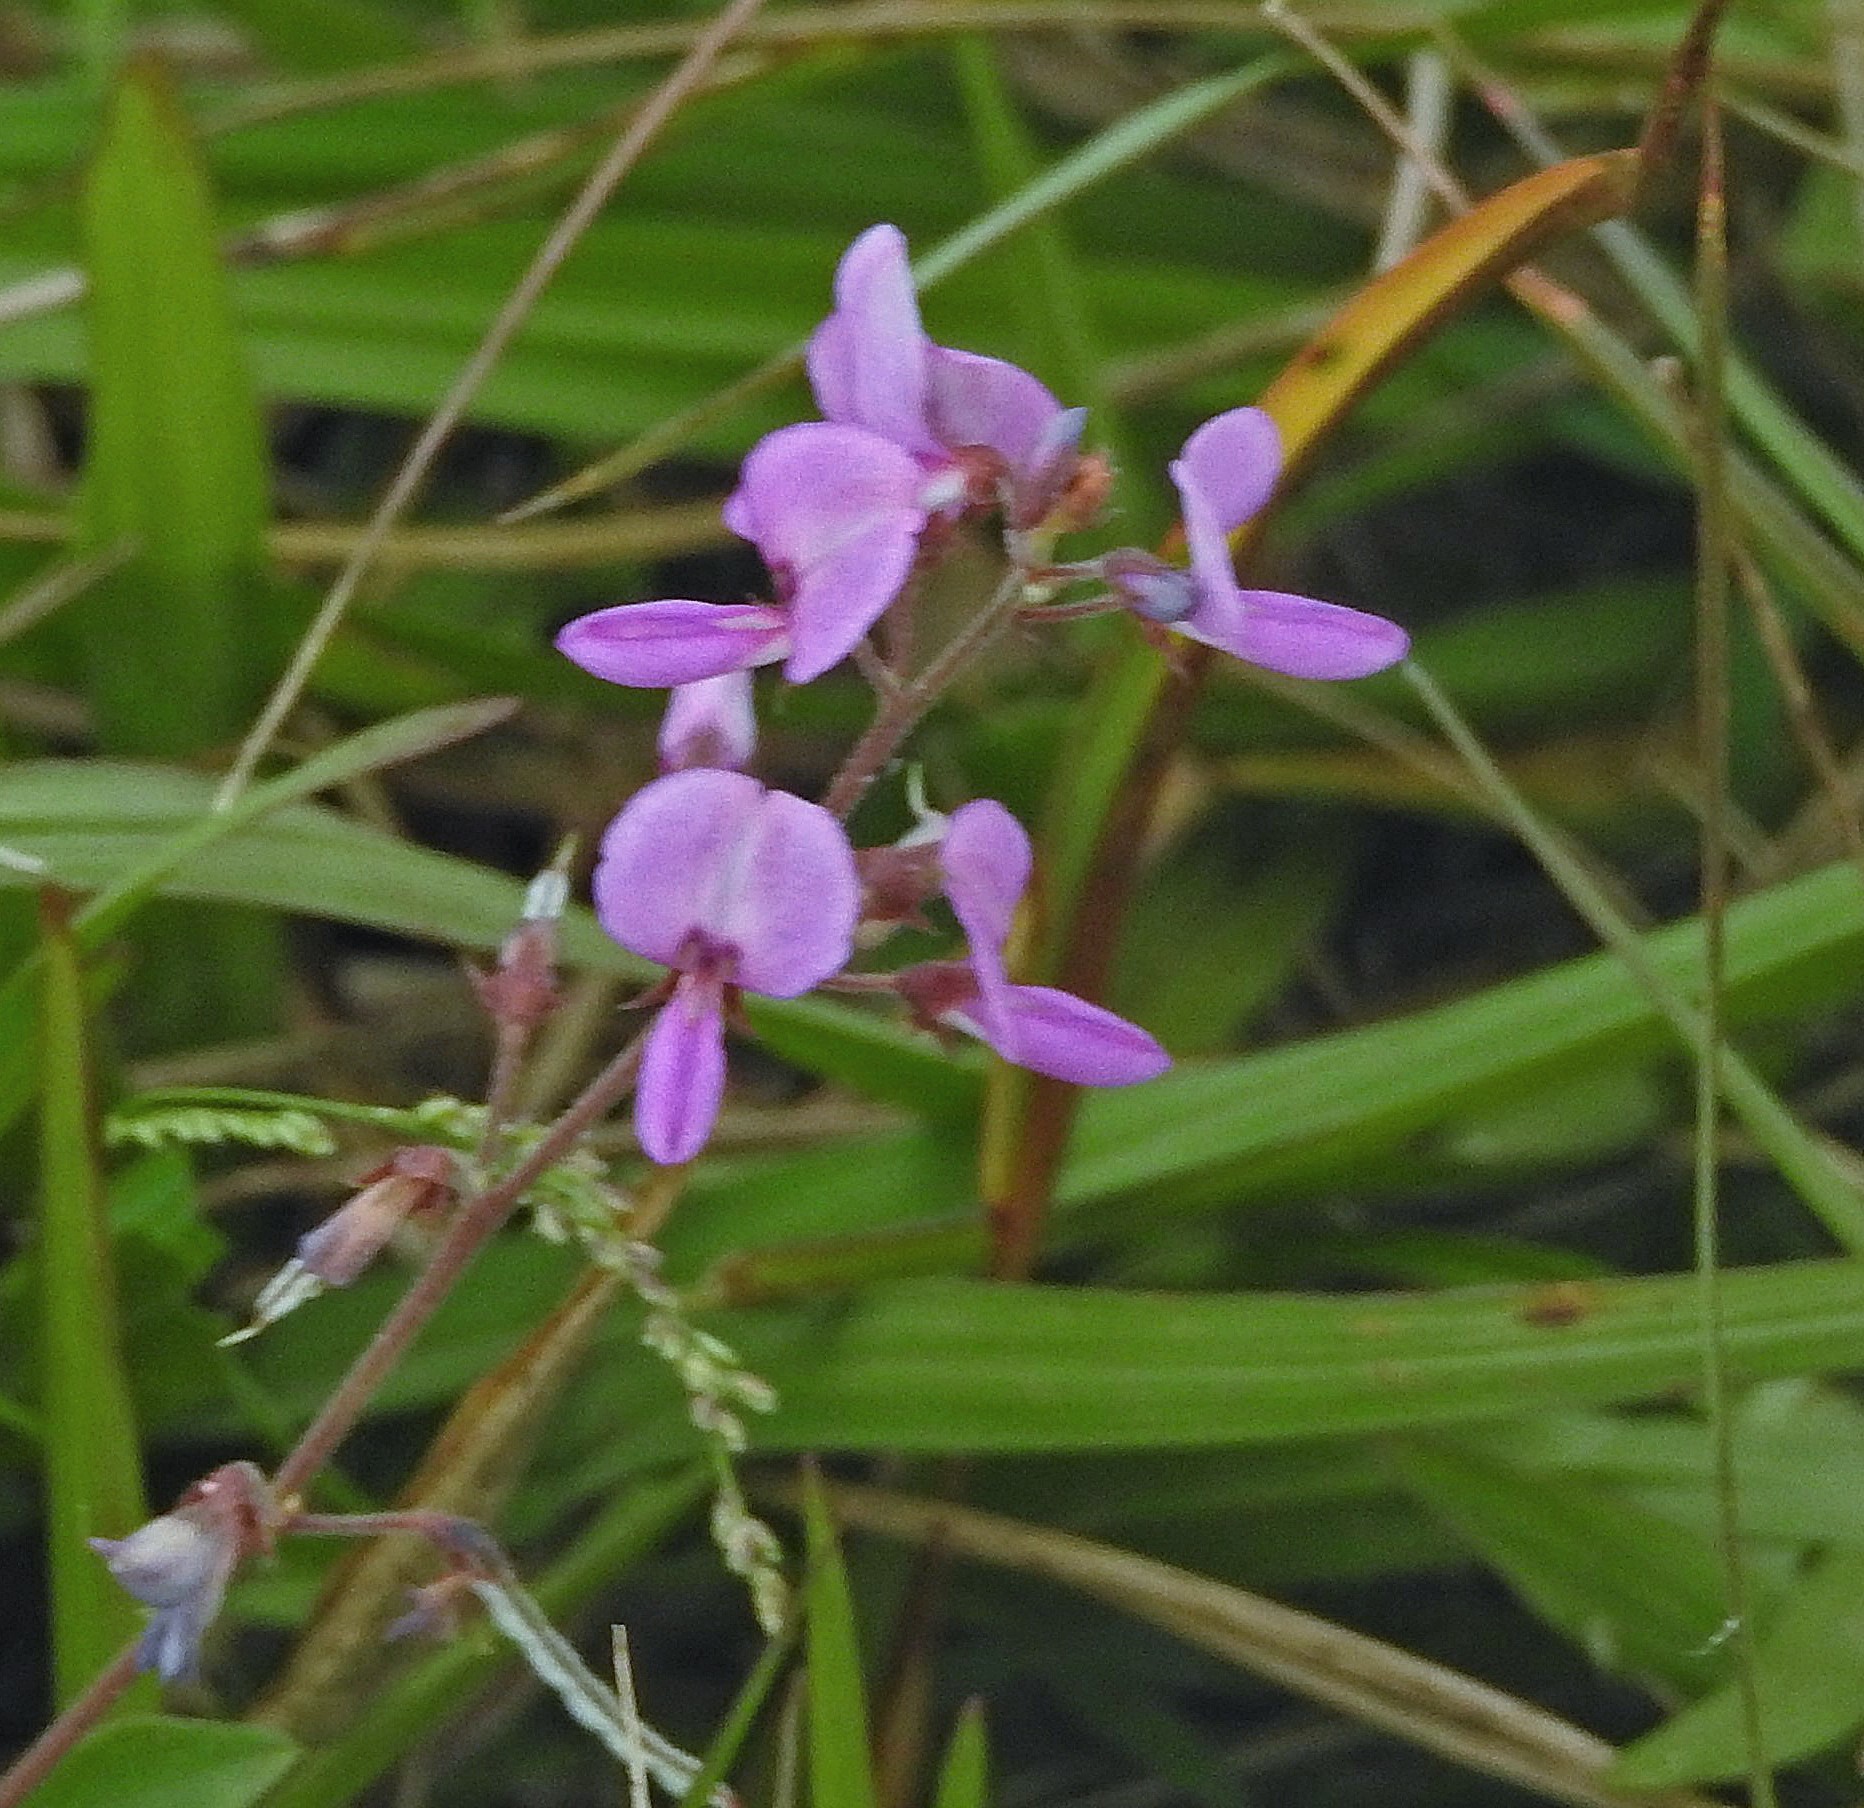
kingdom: Plantae
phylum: Tracheophyta
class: Magnoliopsida
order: Fabales
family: Fabaceae
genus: Desmodium
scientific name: Desmodium incanum
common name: Tickclover
